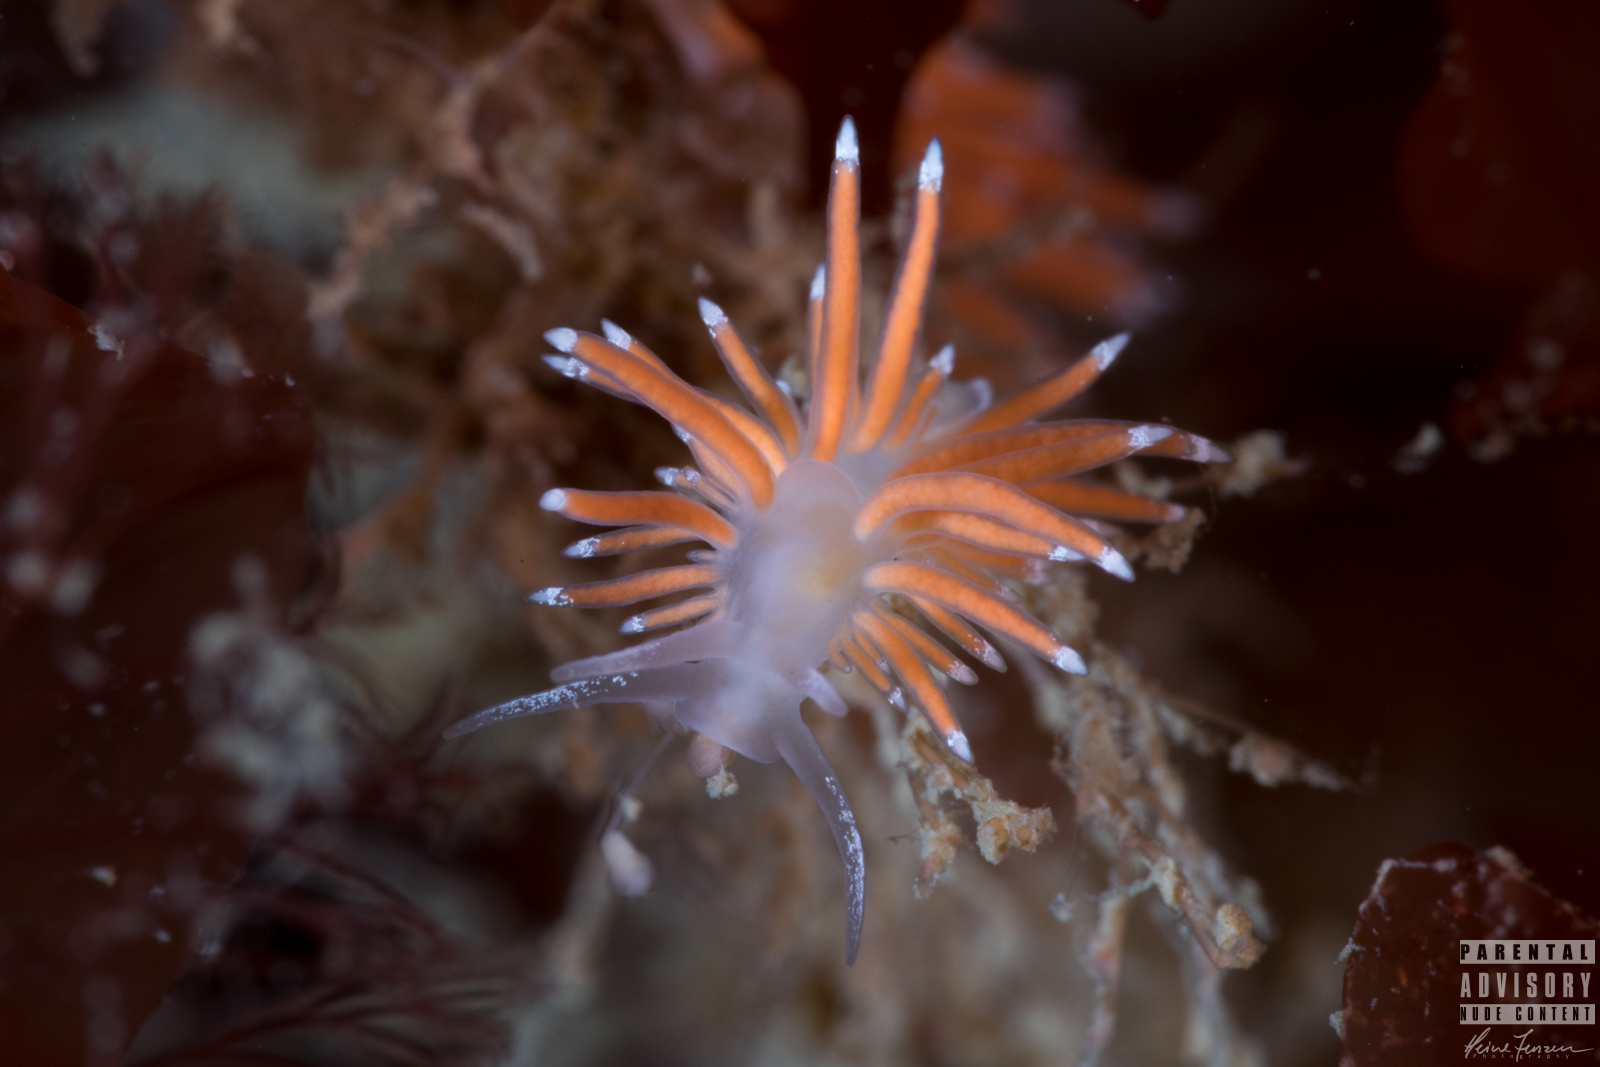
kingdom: Animalia
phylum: Mollusca
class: Gastropoda
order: Nudibranchia
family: Coryphellidae
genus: Coryphella
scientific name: Coryphella gracilis
